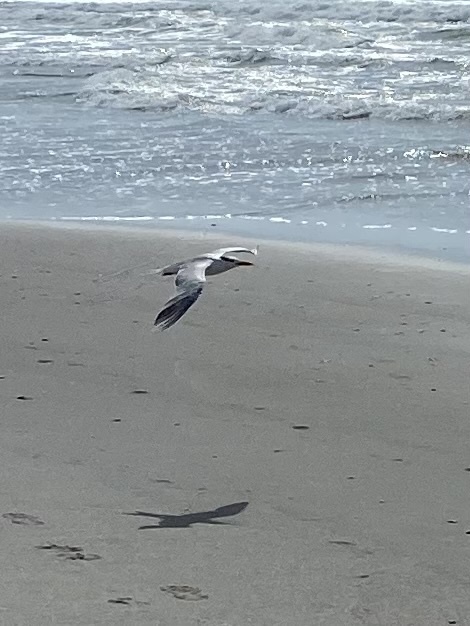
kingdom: Animalia
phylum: Chordata
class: Aves
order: Charadriiformes
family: Laridae
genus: Thalasseus
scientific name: Thalasseus maximus
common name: Royal tern
